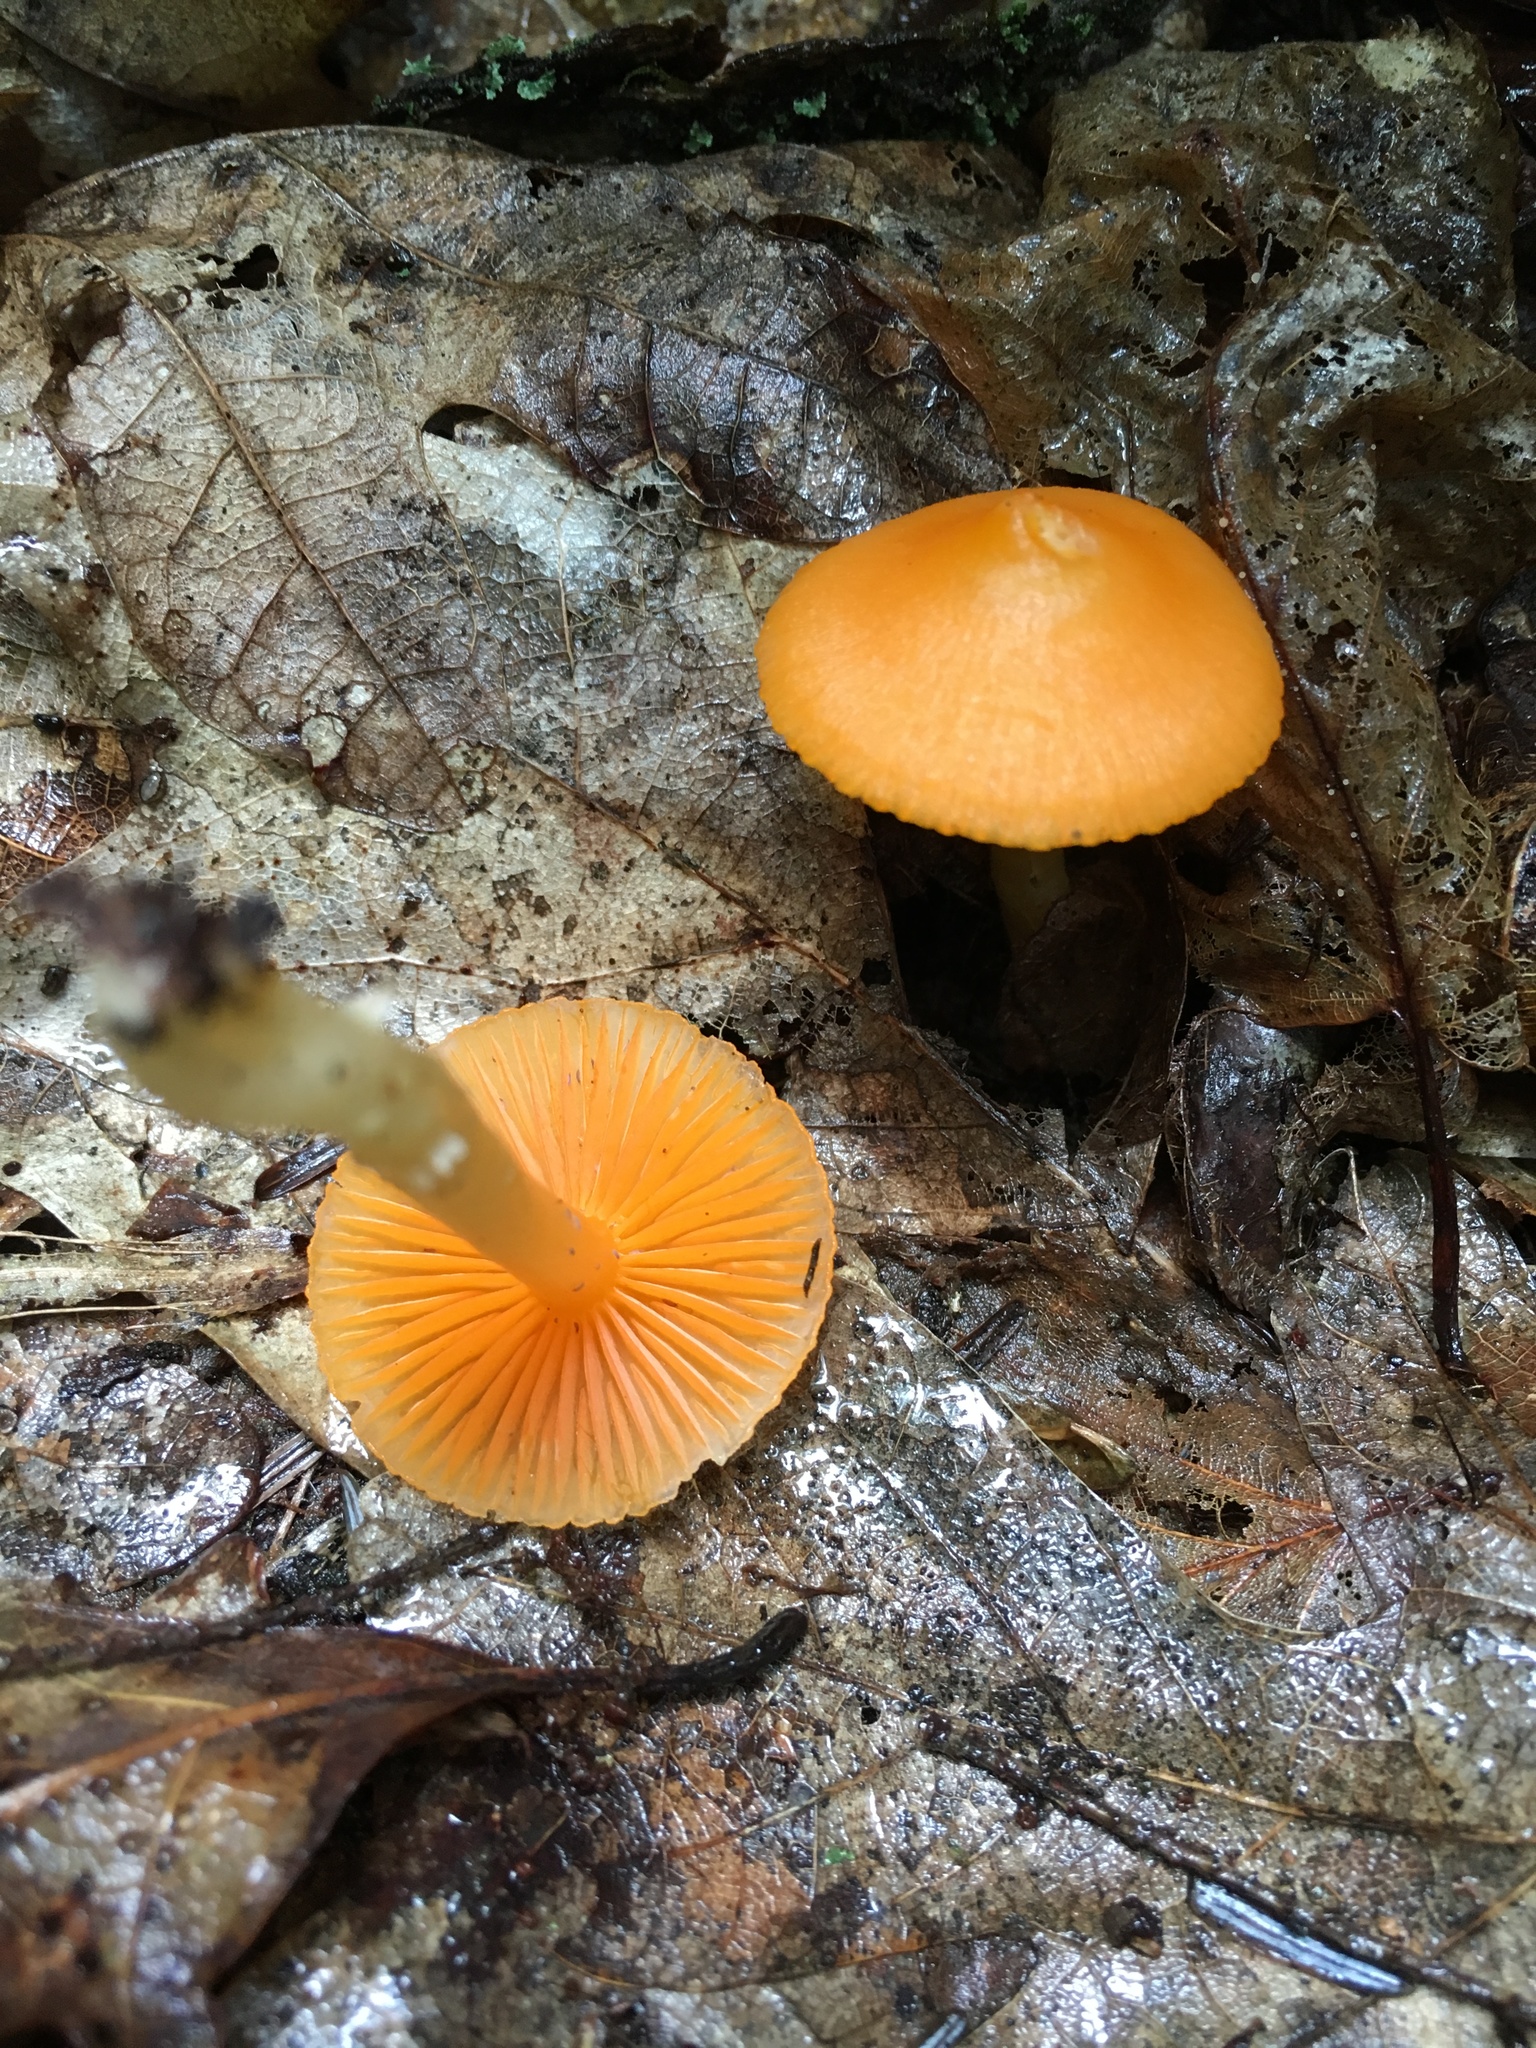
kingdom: Fungi
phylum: Basidiomycota
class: Agaricomycetes
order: Agaricales
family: Hygrophoraceae
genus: Humidicutis
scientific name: Humidicutis marginata
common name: Orange gilled waxcap
